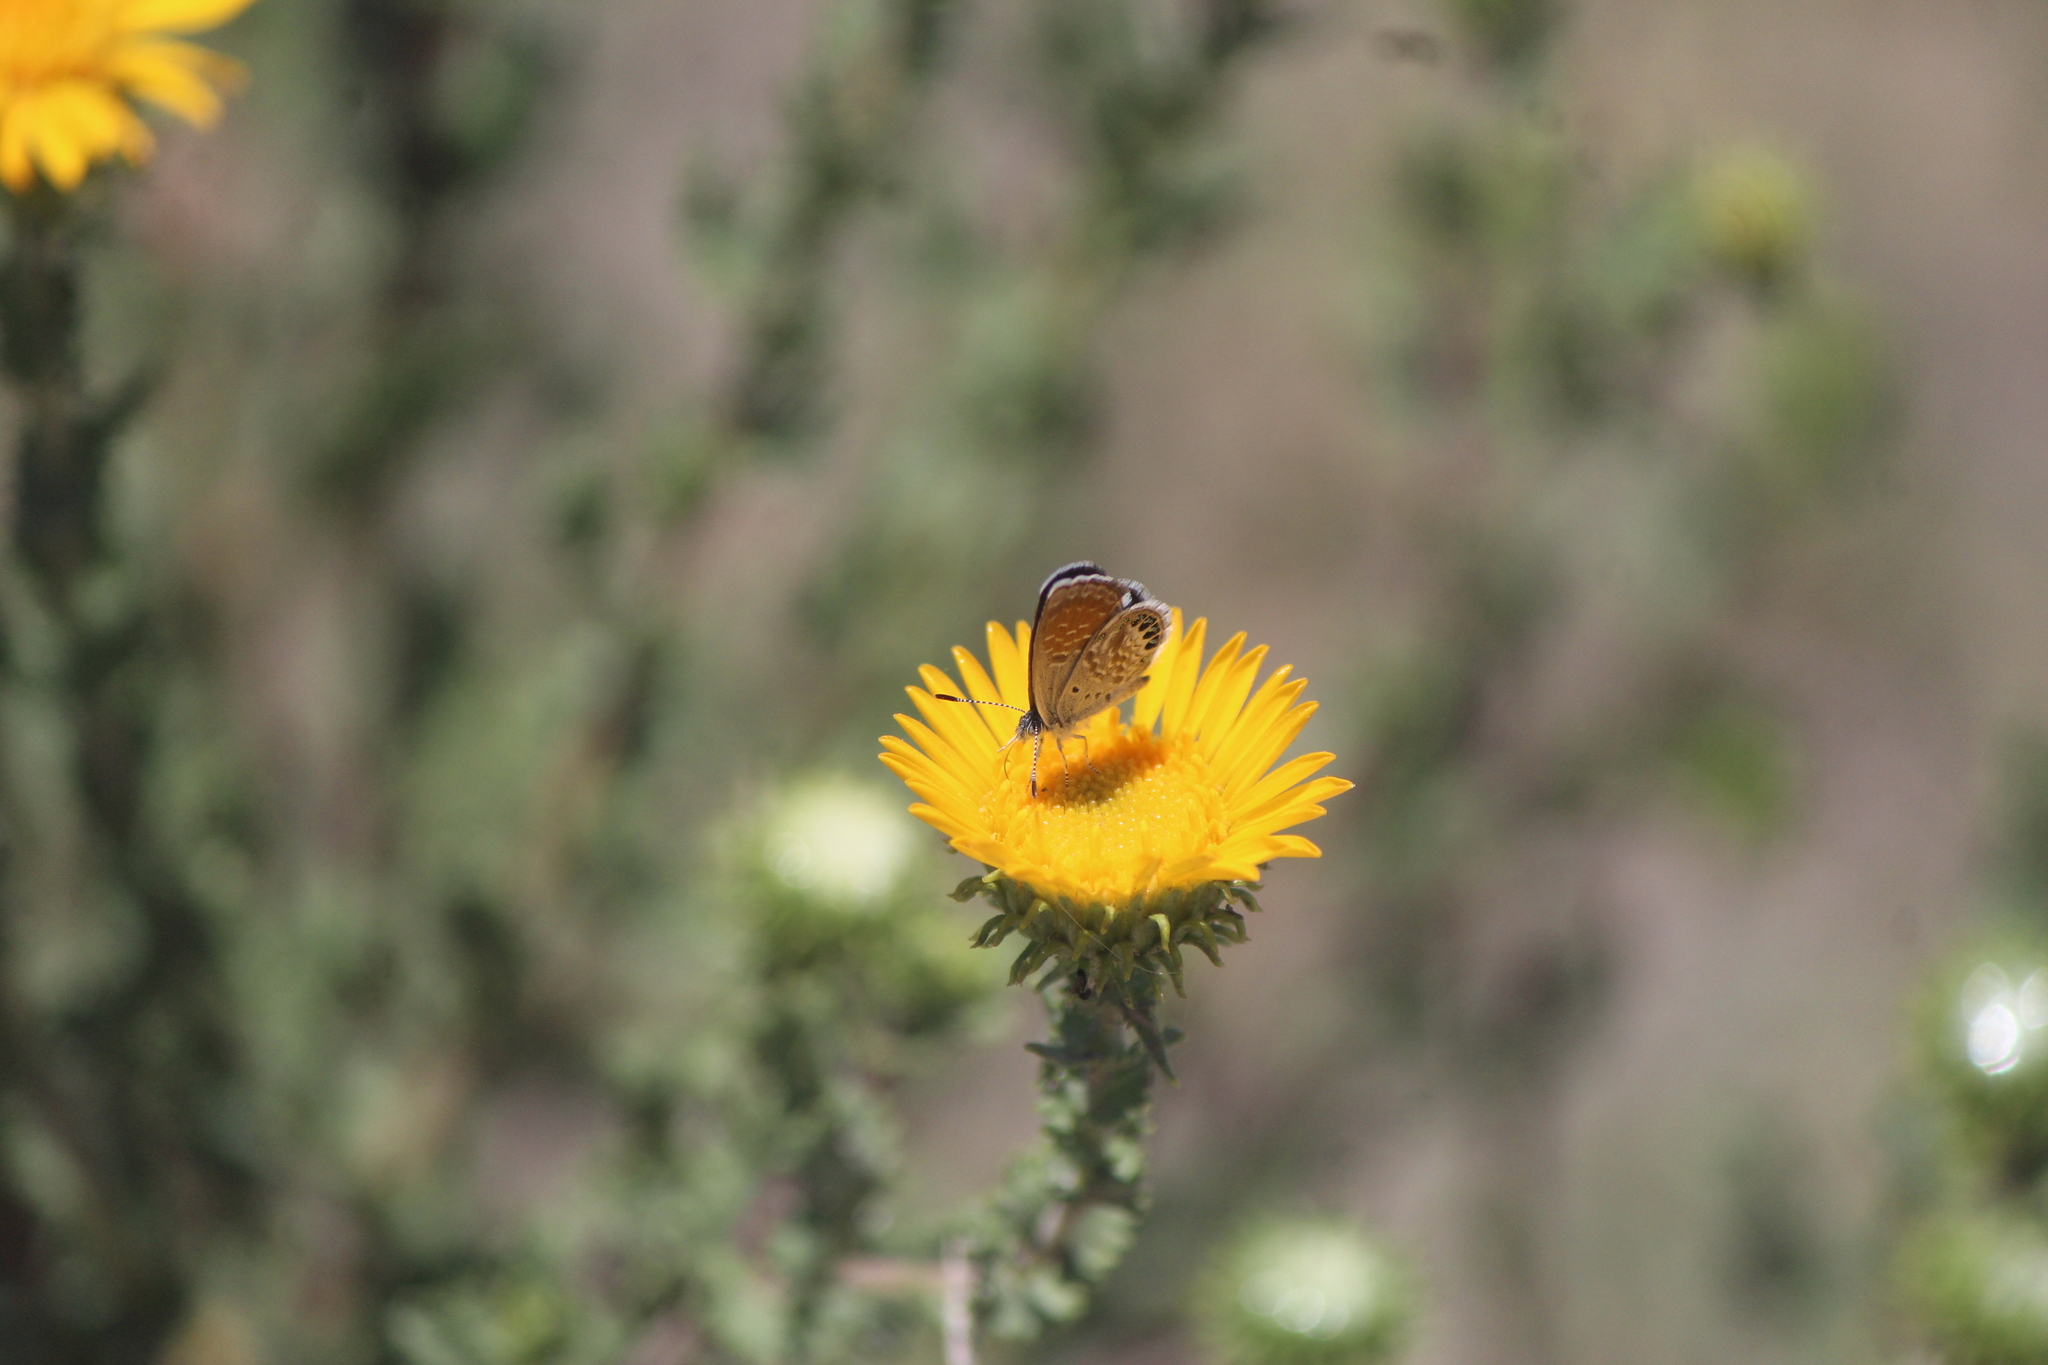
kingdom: Animalia
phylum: Arthropoda
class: Insecta
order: Lepidoptera
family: Lycaenidae
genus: Brephidium
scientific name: Brephidium exilis
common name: Pygmy blue
